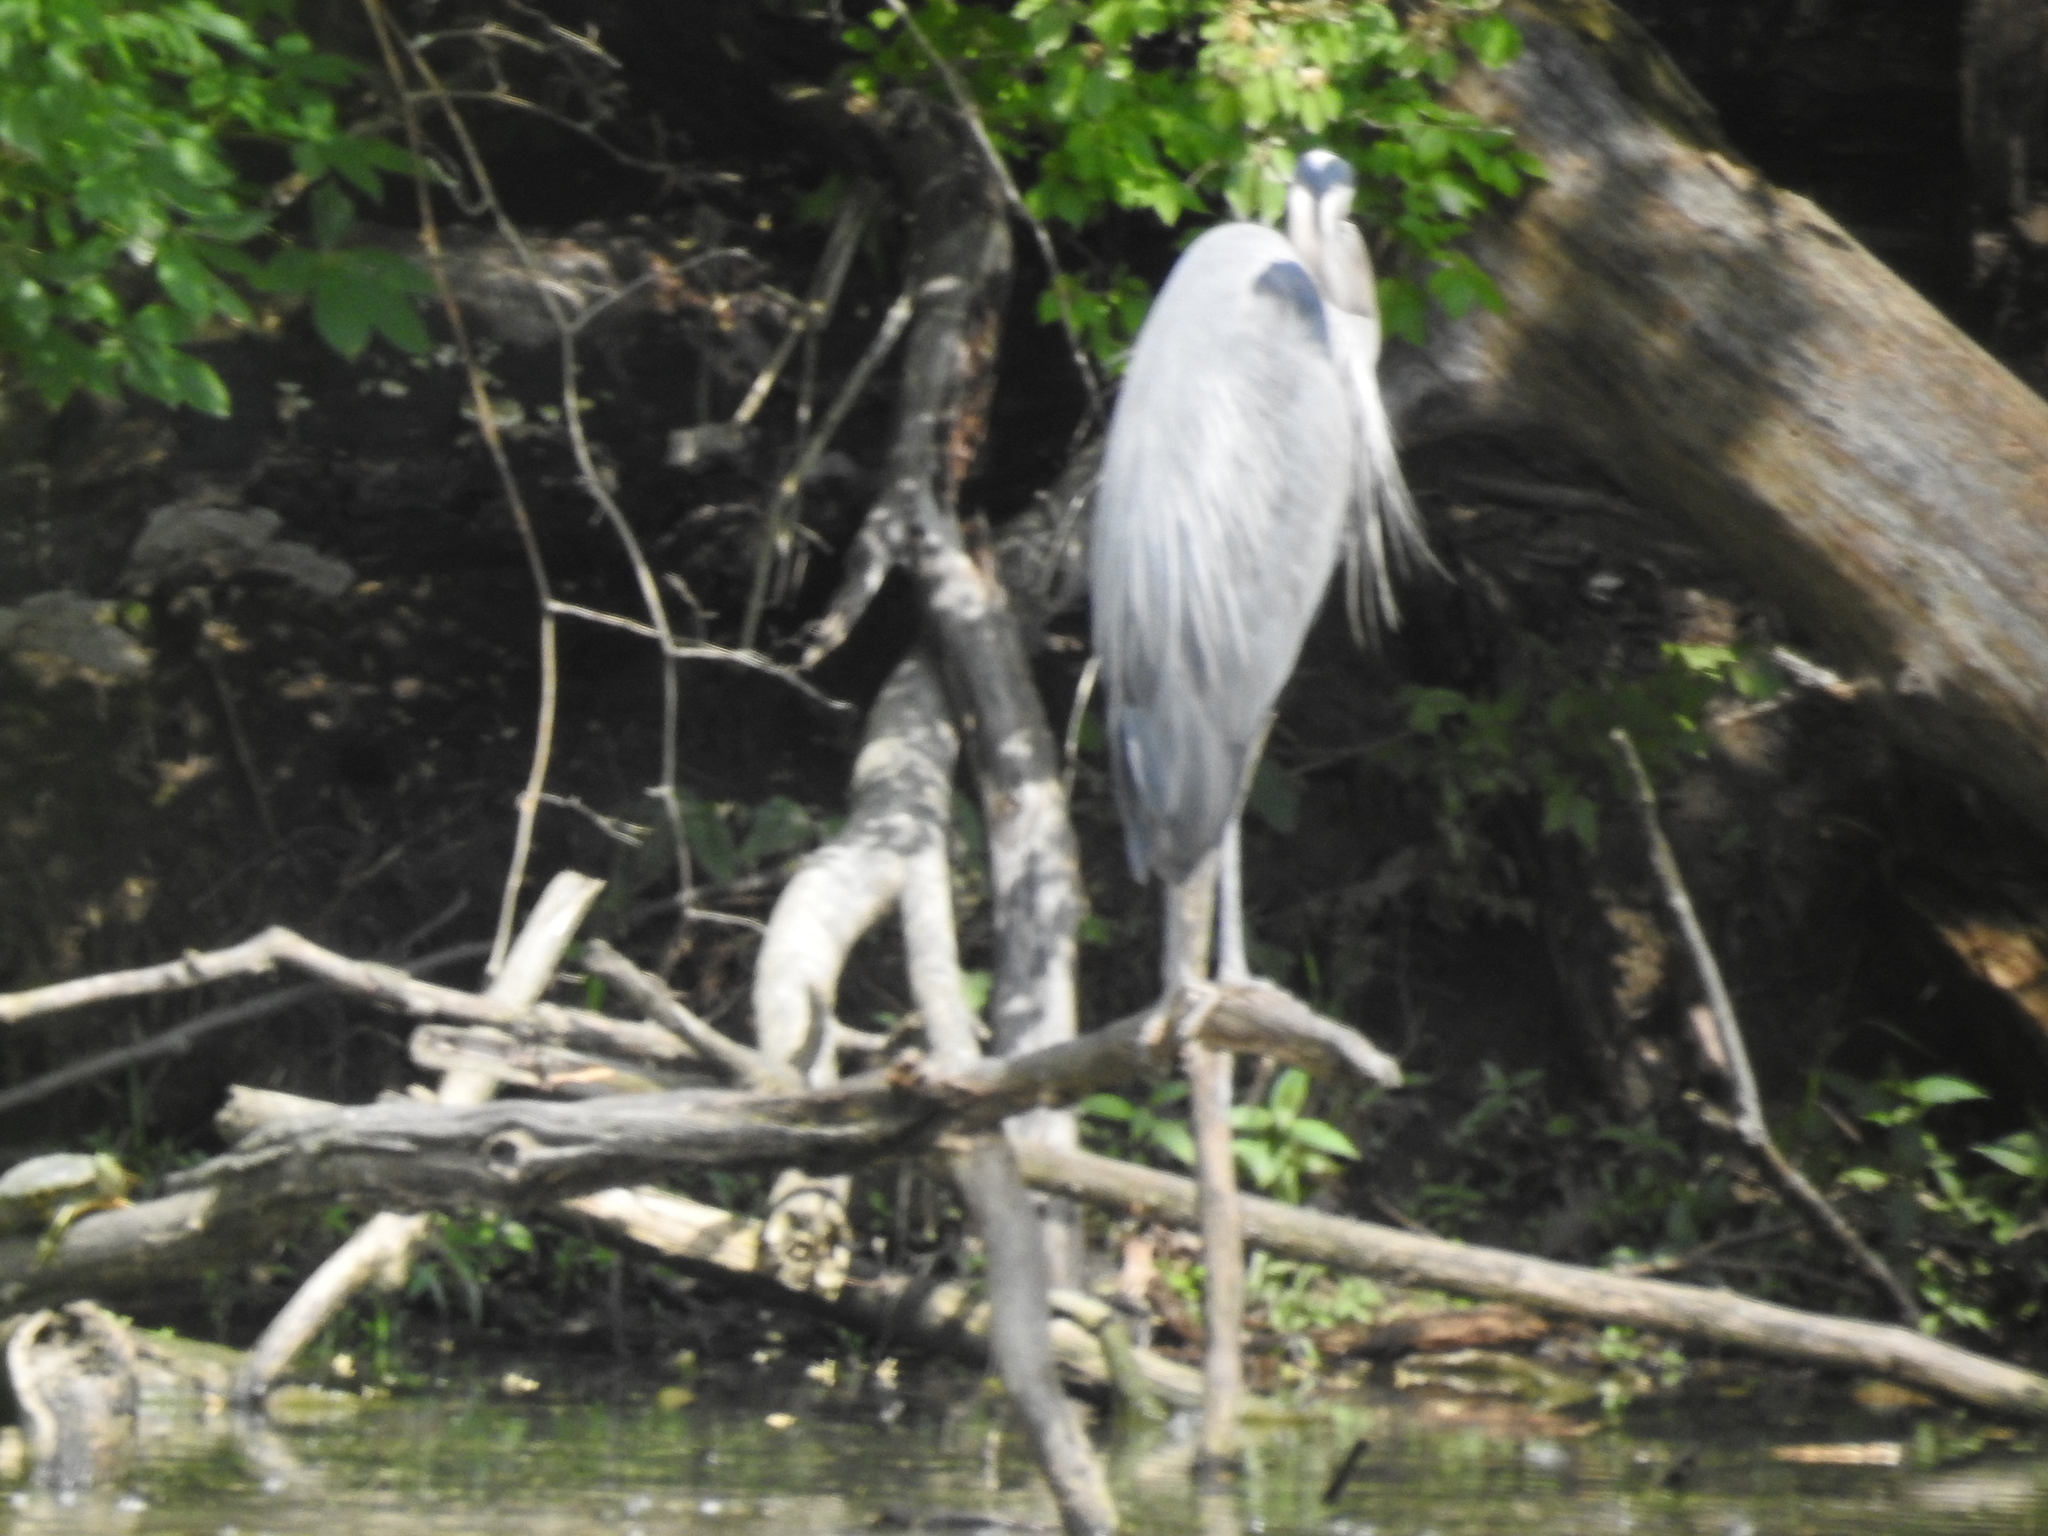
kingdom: Animalia
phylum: Chordata
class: Aves
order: Pelecaniformes
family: Ardeidae
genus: Ardea
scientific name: Ardea herodias
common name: Great blue heron
